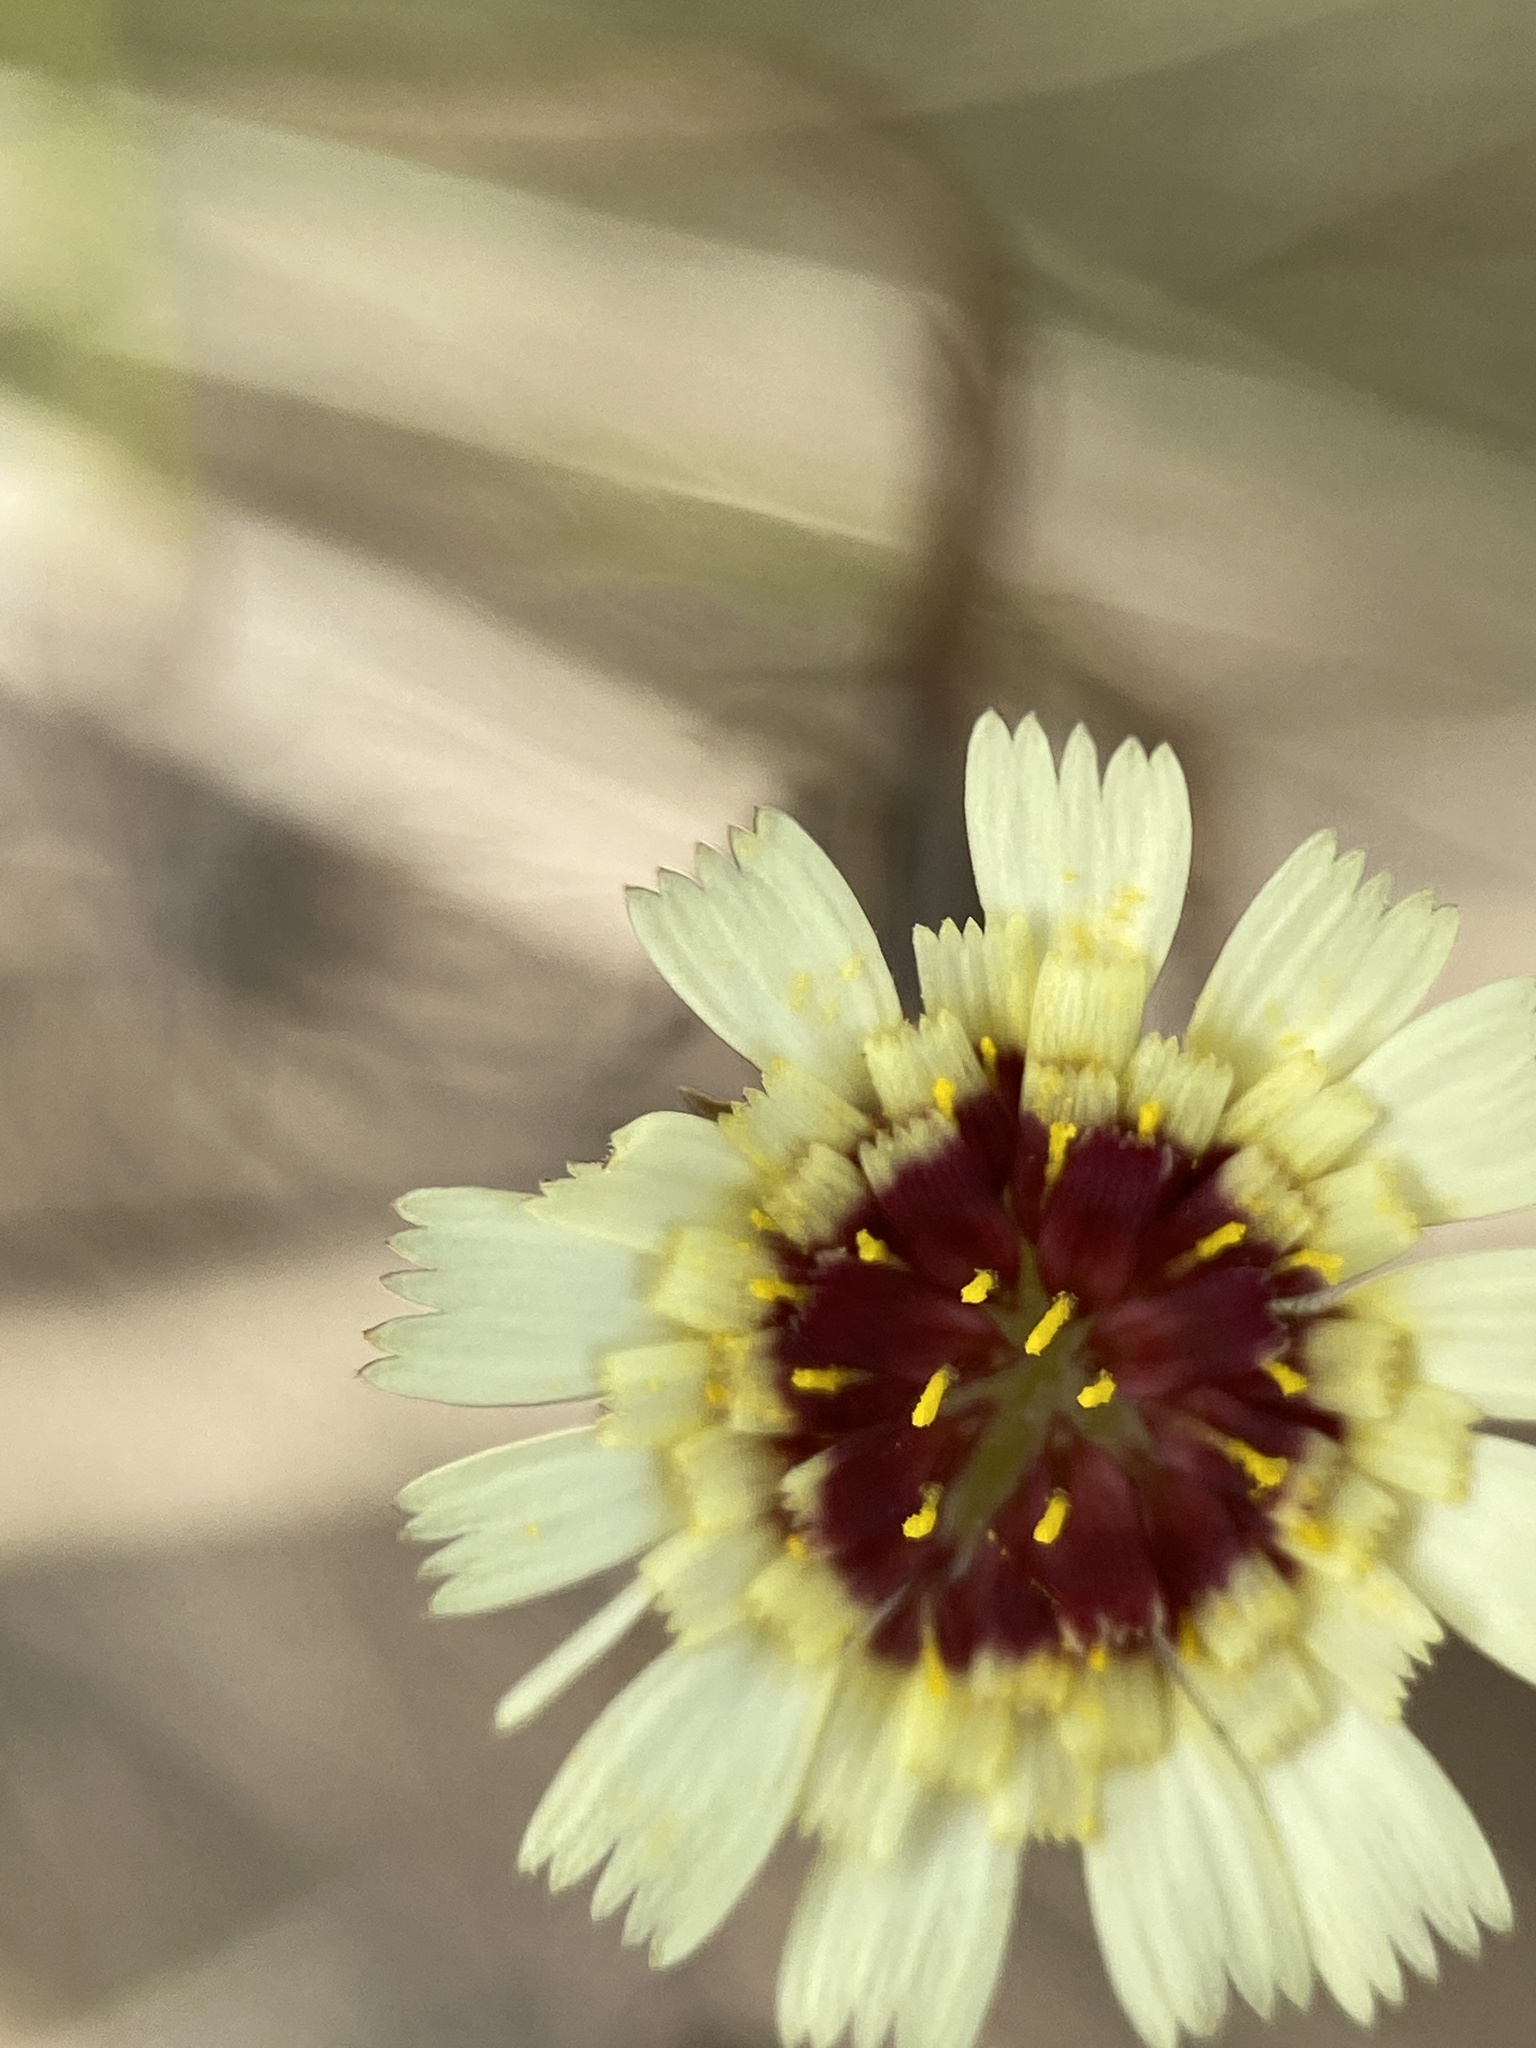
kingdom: Plantae
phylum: Tracheophyta
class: Magnoliopsida
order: Asterales
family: Asteraceae
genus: Tolpis
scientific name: Tolpis barbata
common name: Yellow hawkweed
